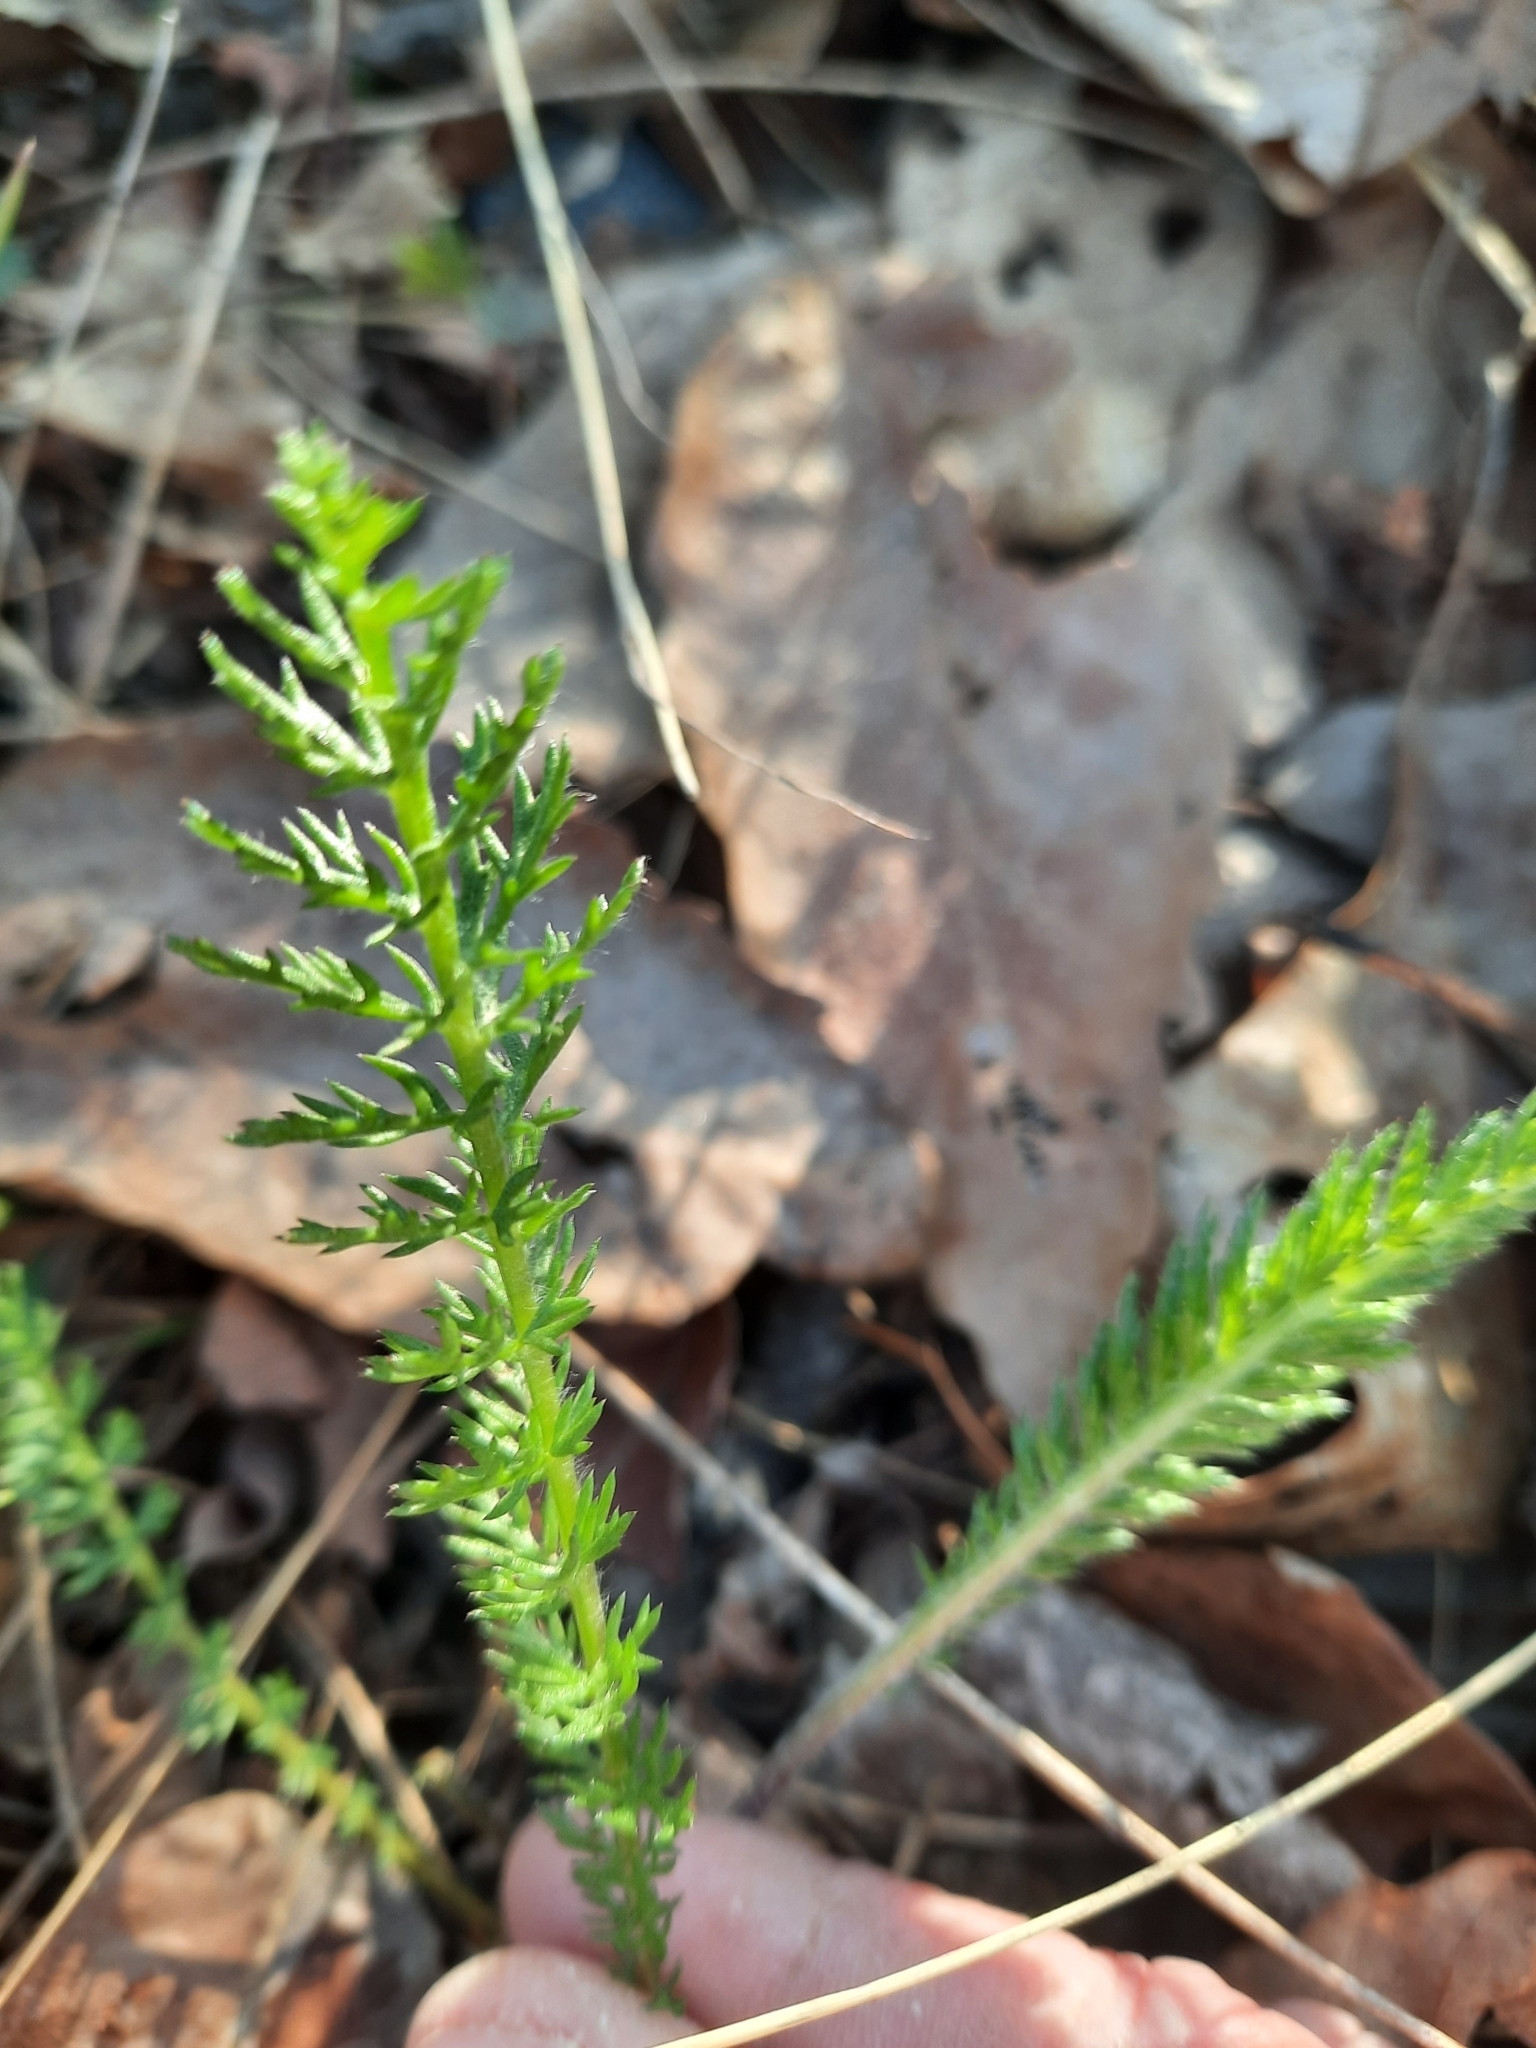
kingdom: Plantae
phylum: Tracheophyta
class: Magnoliopsida
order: Asterales
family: Asteraceae
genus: Achillea
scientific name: Achillea millefolium
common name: Yarrow
